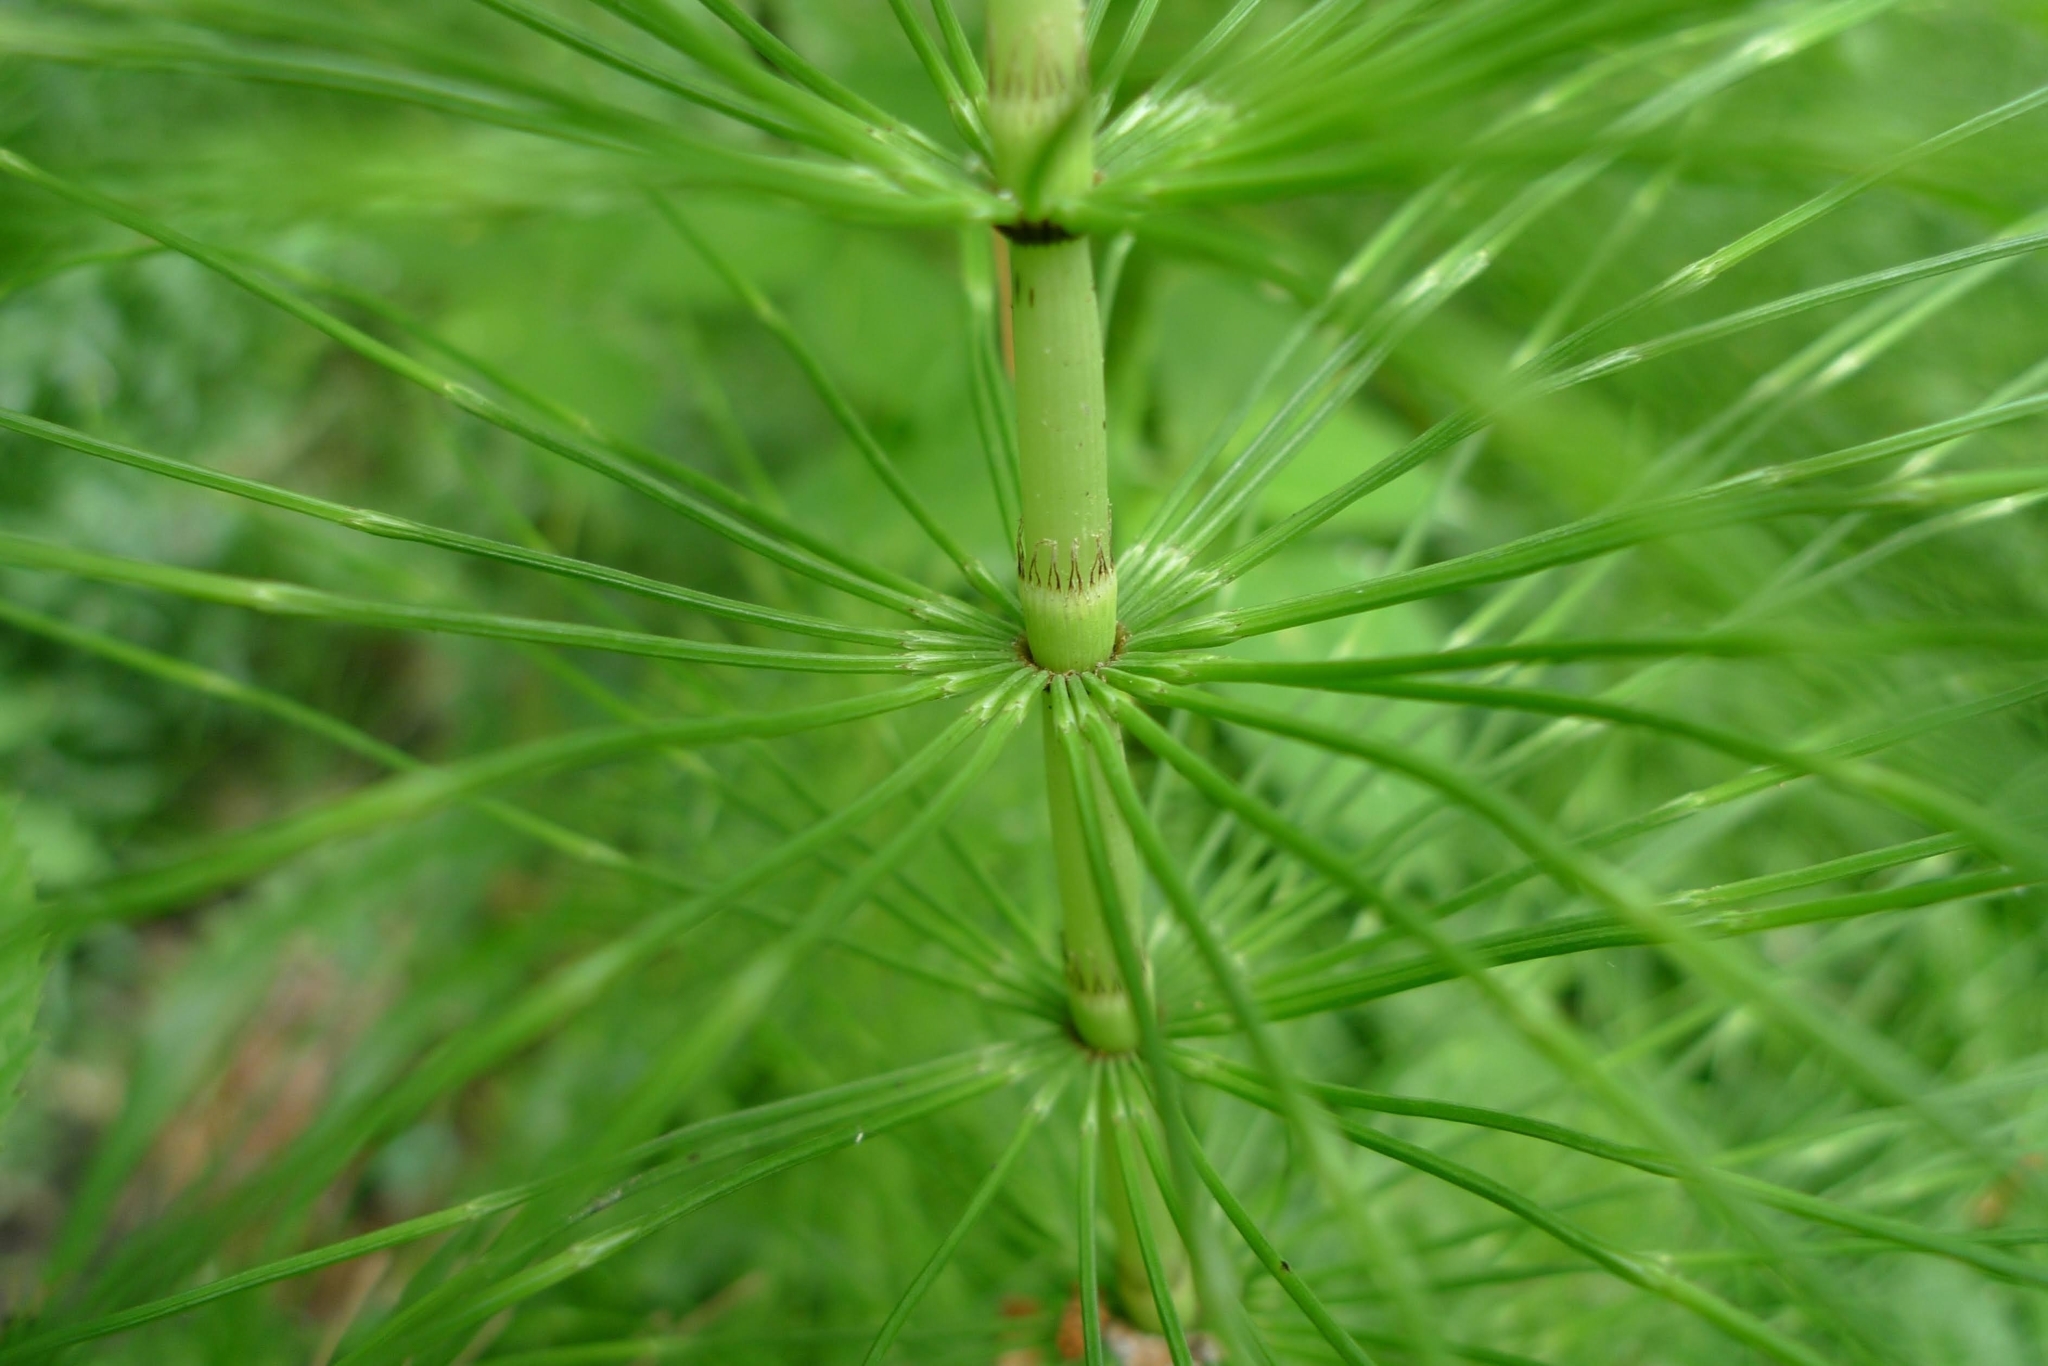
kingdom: Plantae
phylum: Tracheophyta
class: Polypodiopsida
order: Equisetales
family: Equisetaceae
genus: Equisetum
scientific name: Equisetum telmateia
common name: Great horsetail
